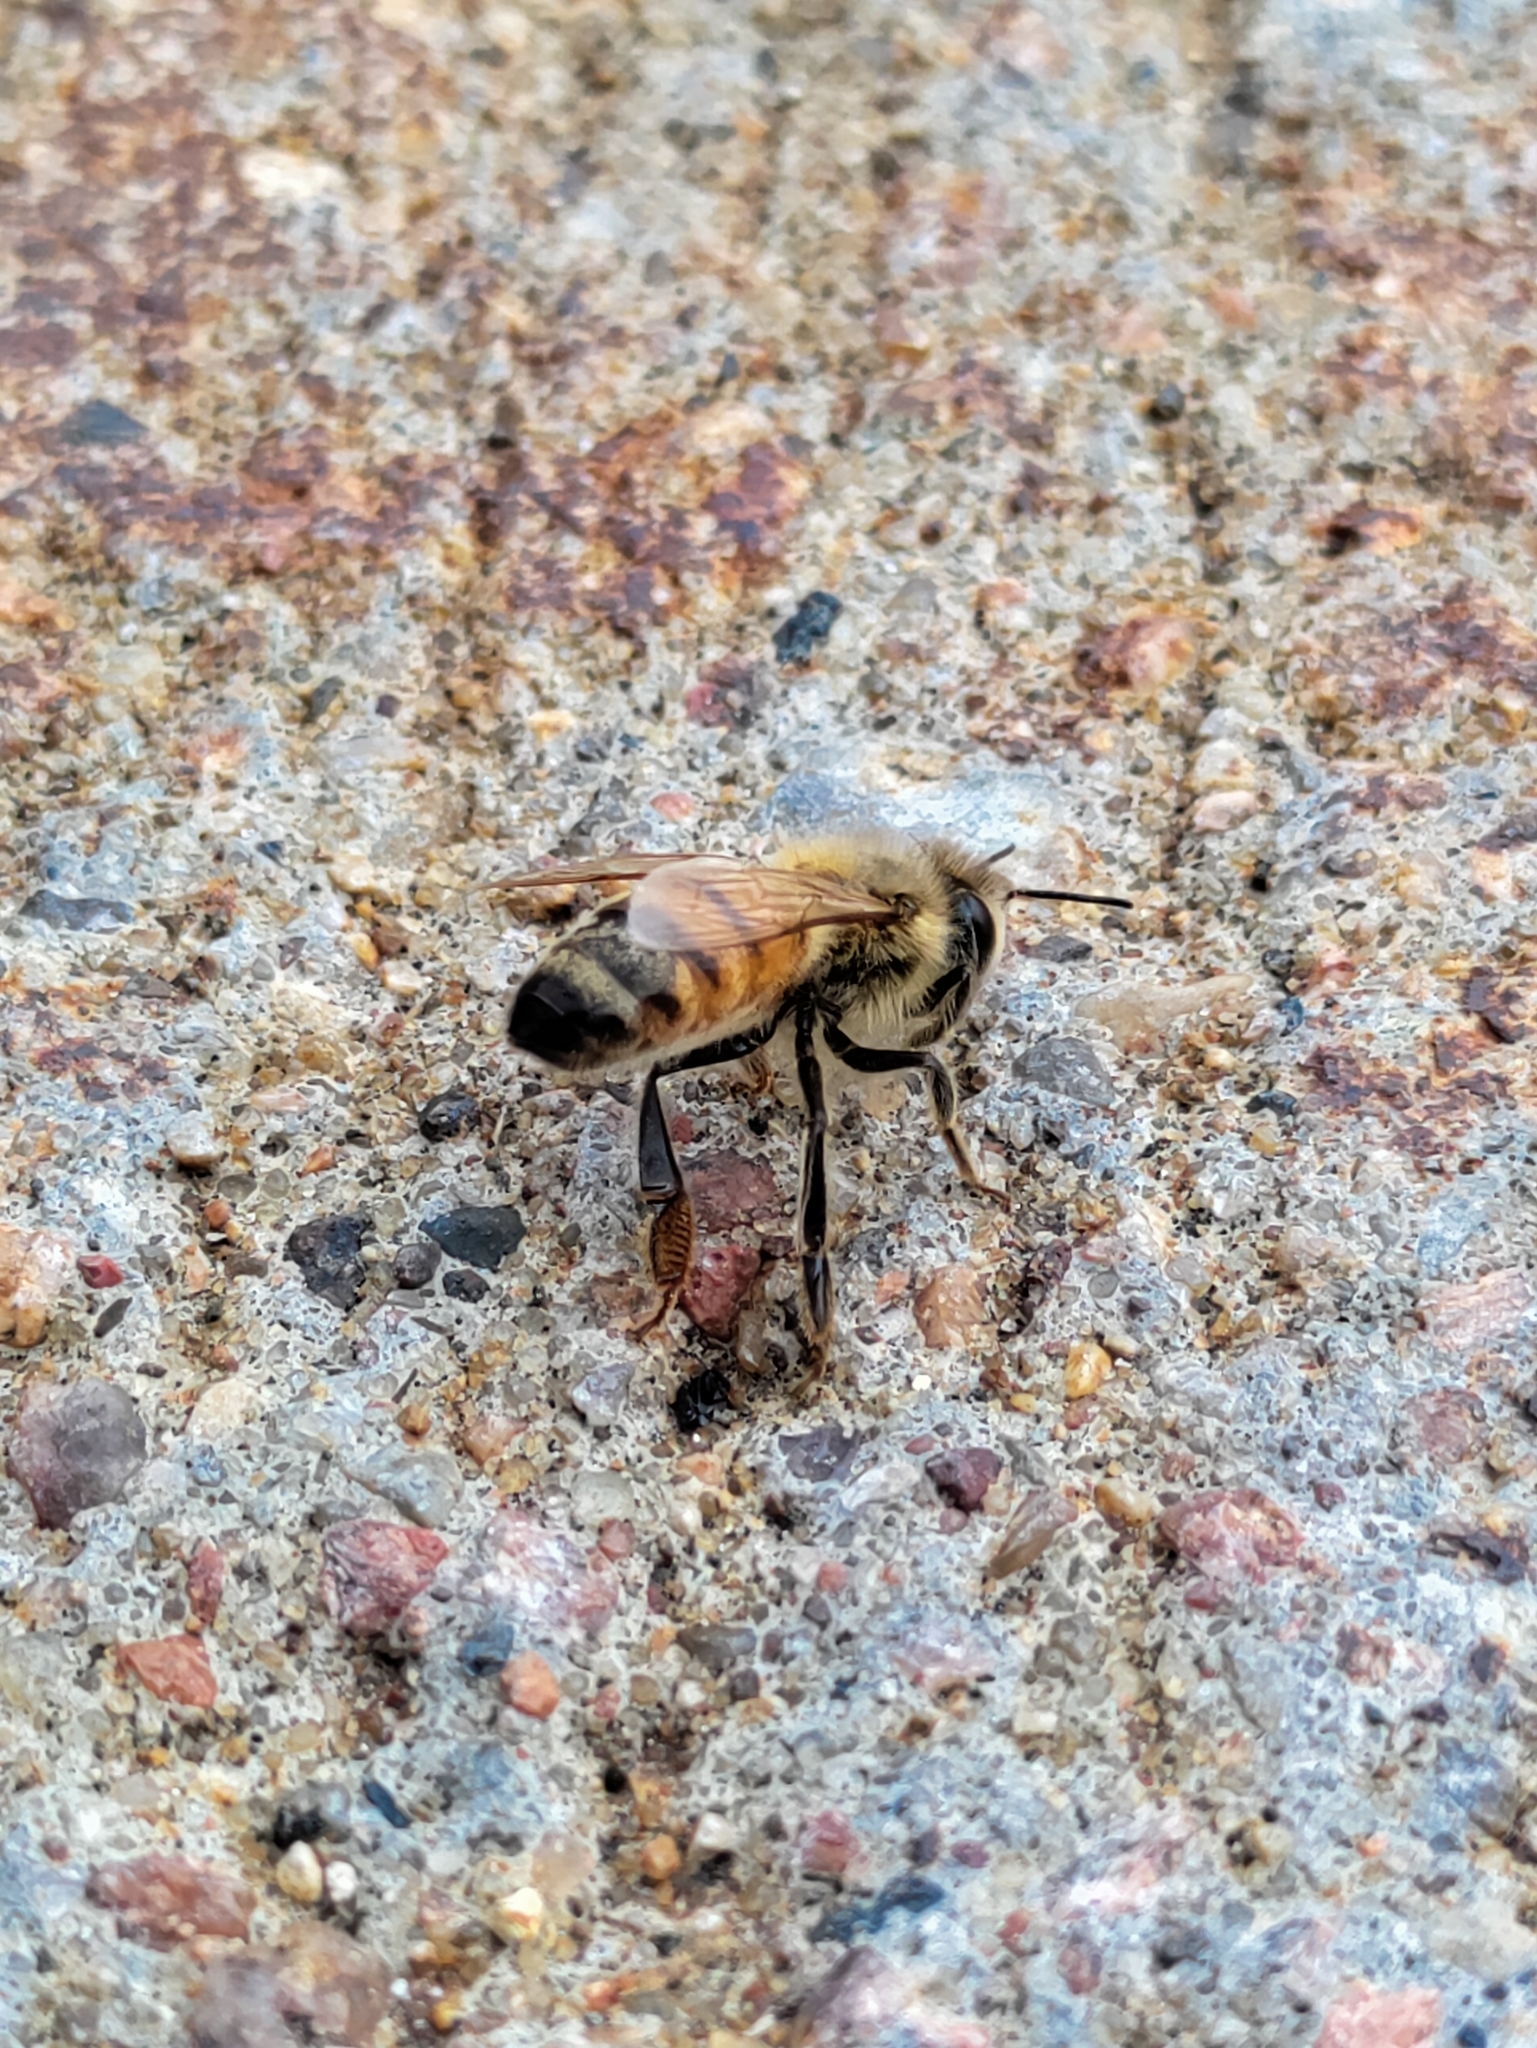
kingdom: Animalia
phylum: Arthropoda
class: Insecta
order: Hymenoptera
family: Apidae
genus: Apis
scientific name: Apis mellifera
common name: Honey bee
